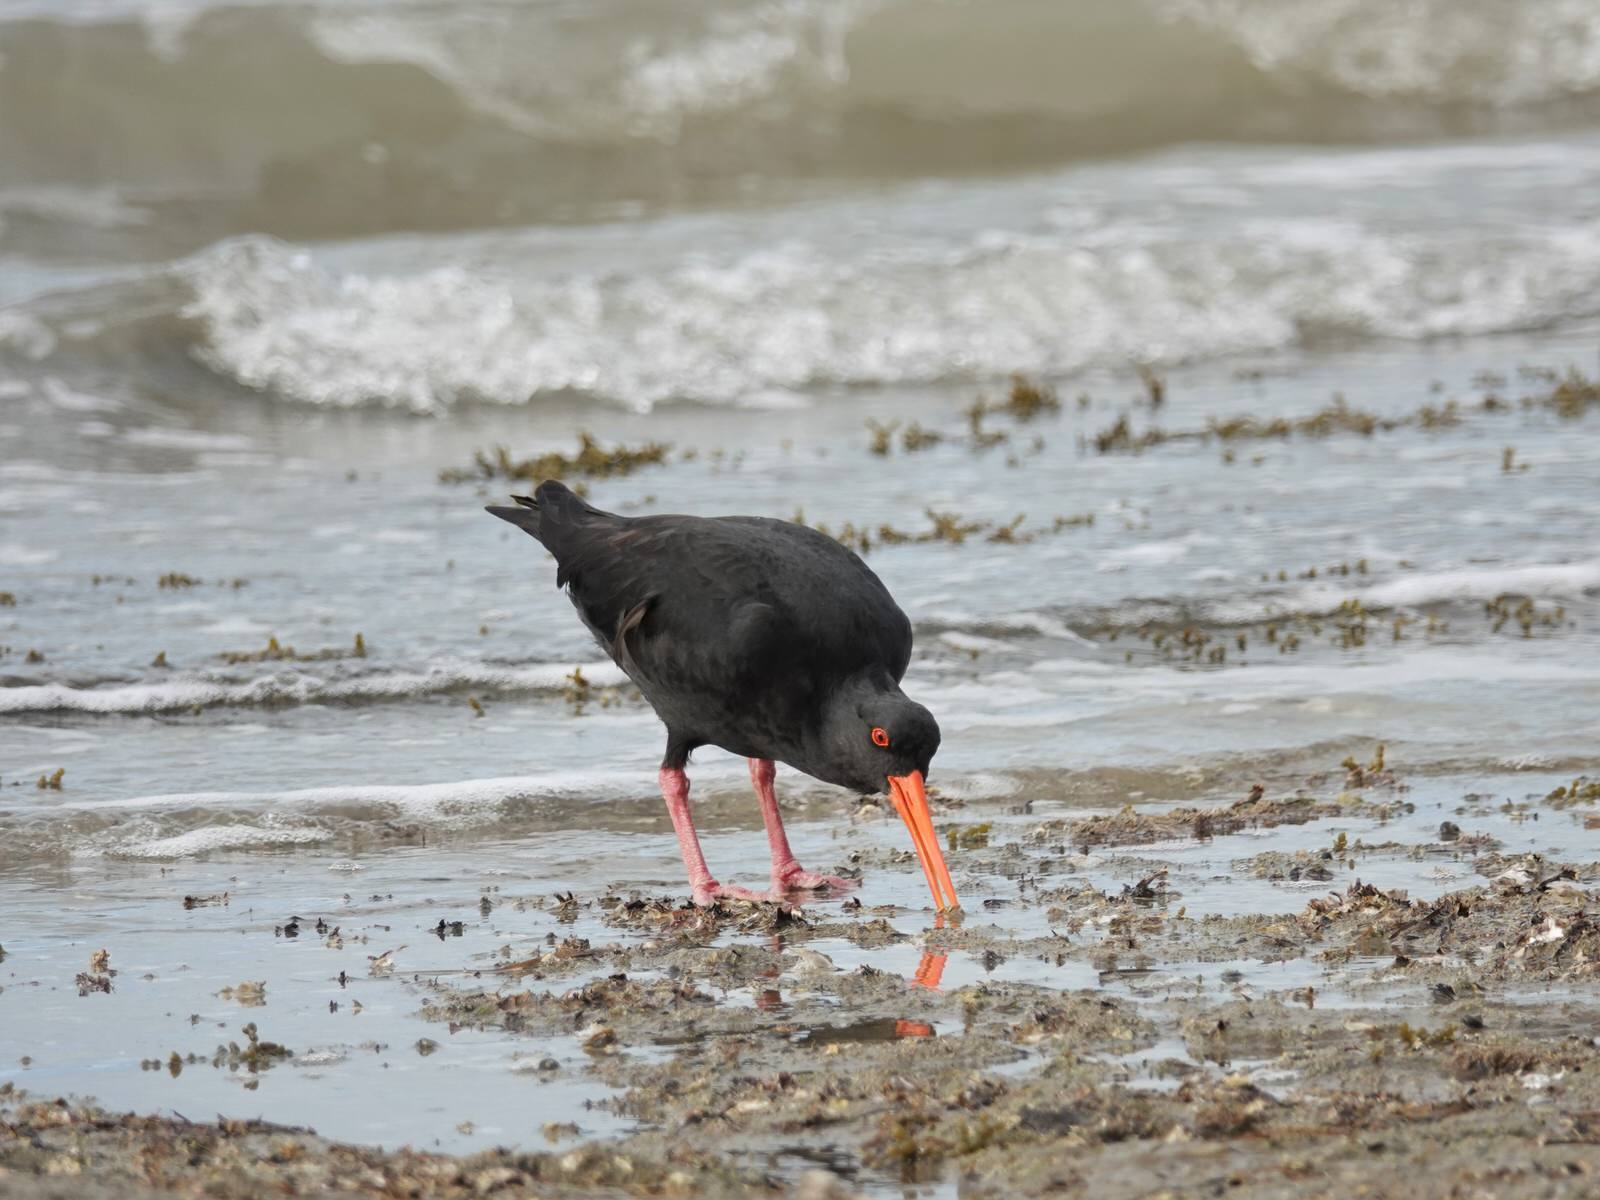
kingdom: Animalia
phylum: Chordata
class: Aves
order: Charadriiformes
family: Haematopodidae
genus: Haematopus
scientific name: Haematopus unicolor
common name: Variable oystercatcher
